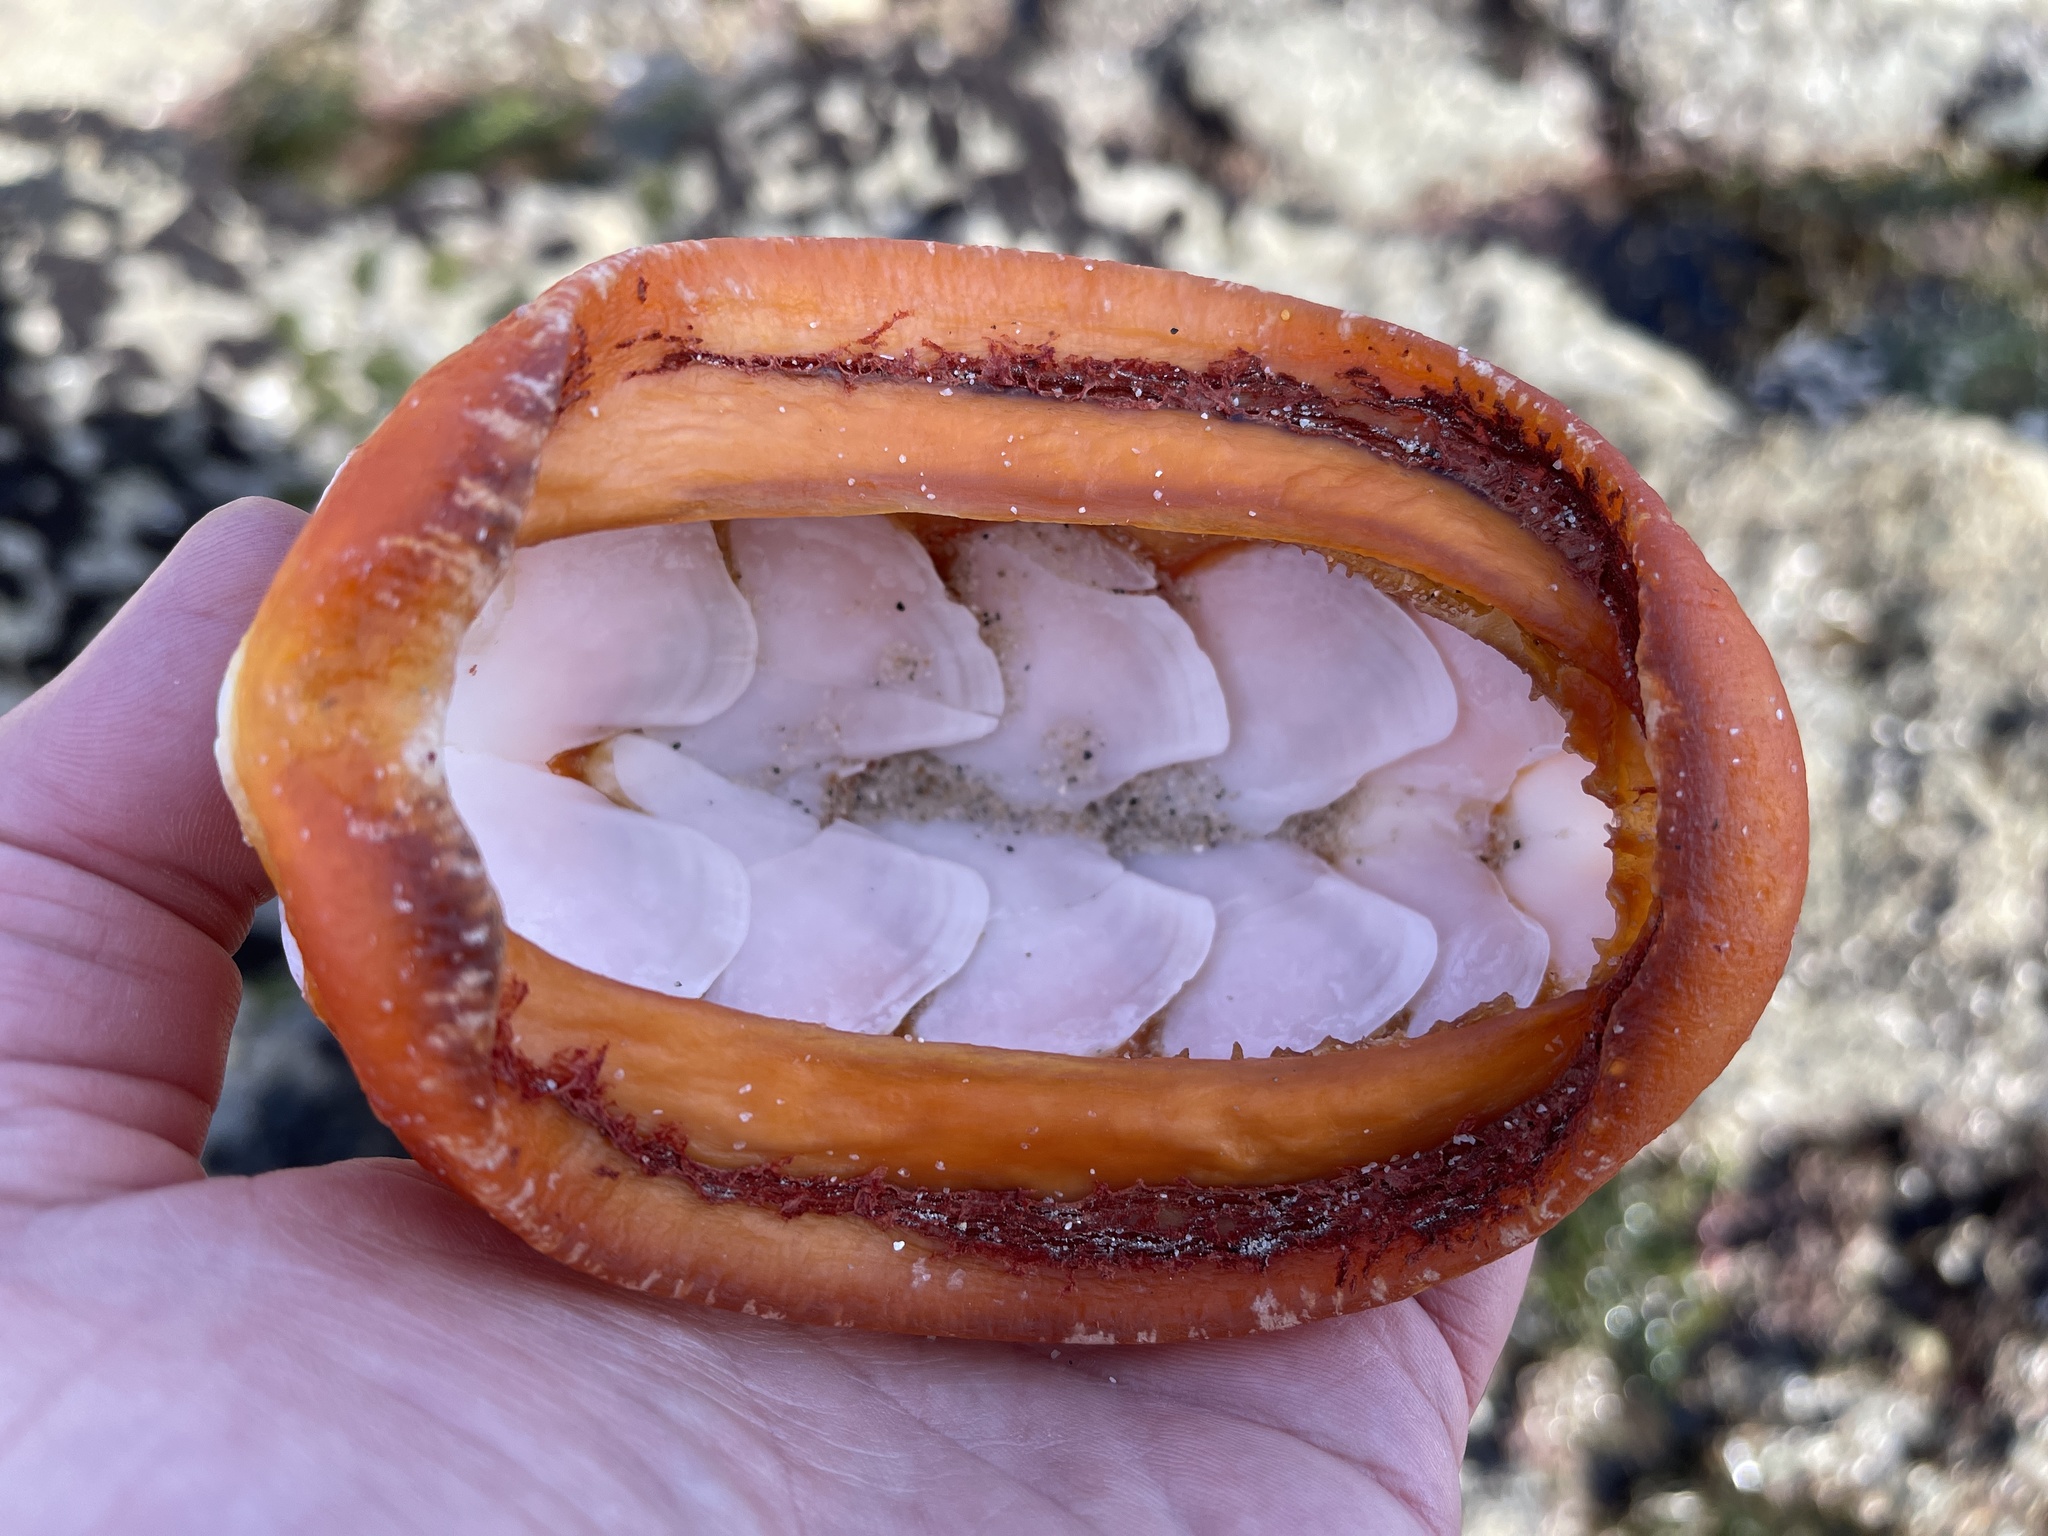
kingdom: Animalia
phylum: Mollusca
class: Polyplacophora
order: Chitonida
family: Acanthochitonidae
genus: Cryptochiton
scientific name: Cryptochiton stelleri
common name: Giant pacific chiton
